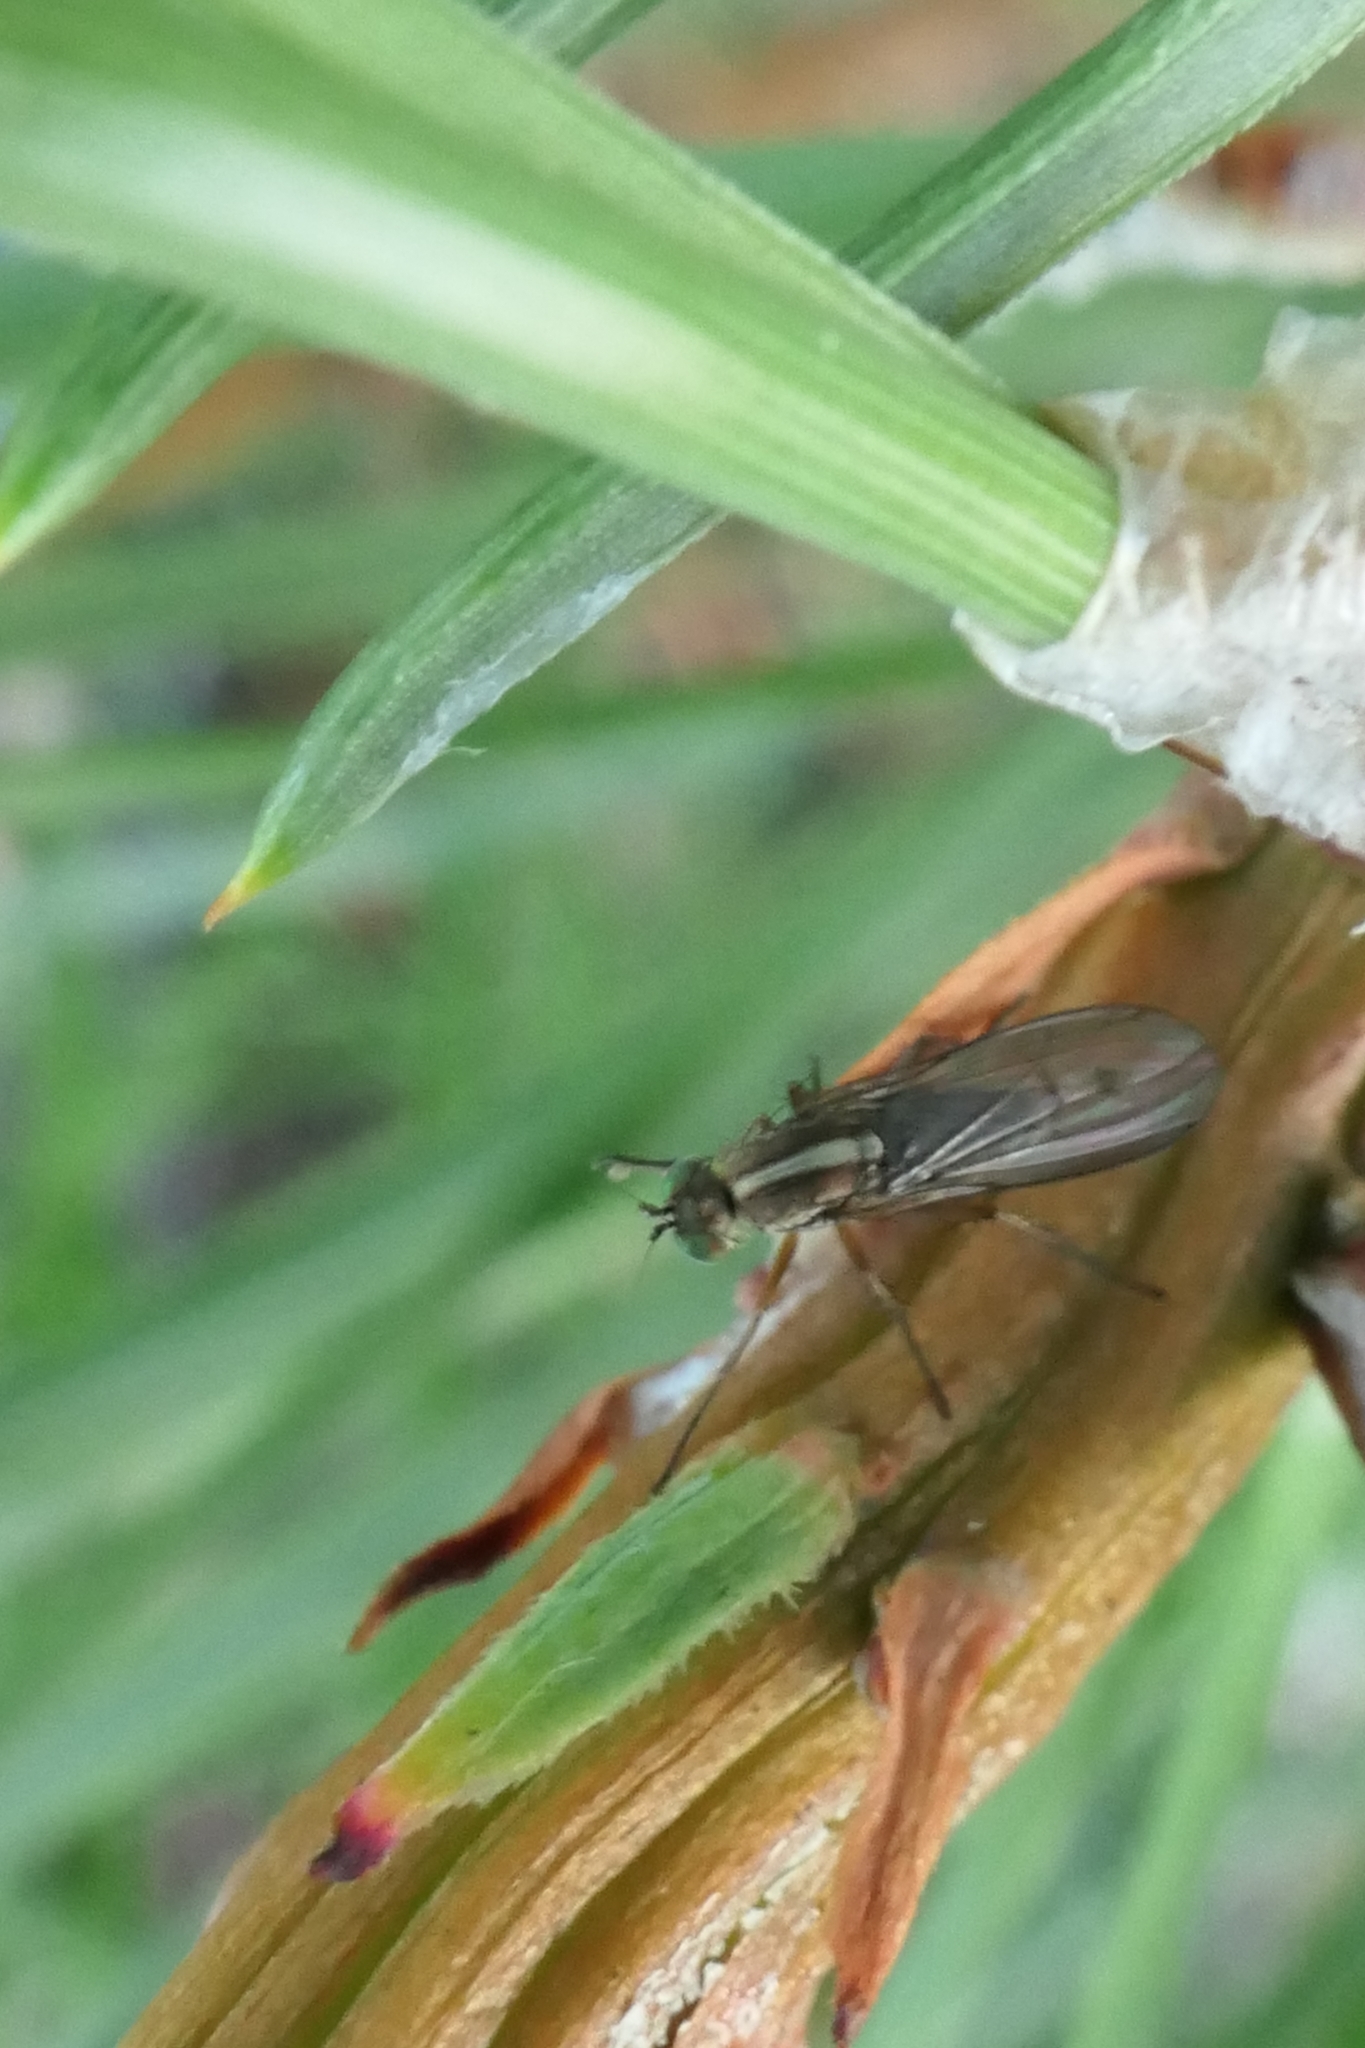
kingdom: Animalia
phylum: Arthropoda
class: Insecta
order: Diptera
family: Dolichopodidae
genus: Tetrachaetus
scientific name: Tetrachaetus bipunctatus
